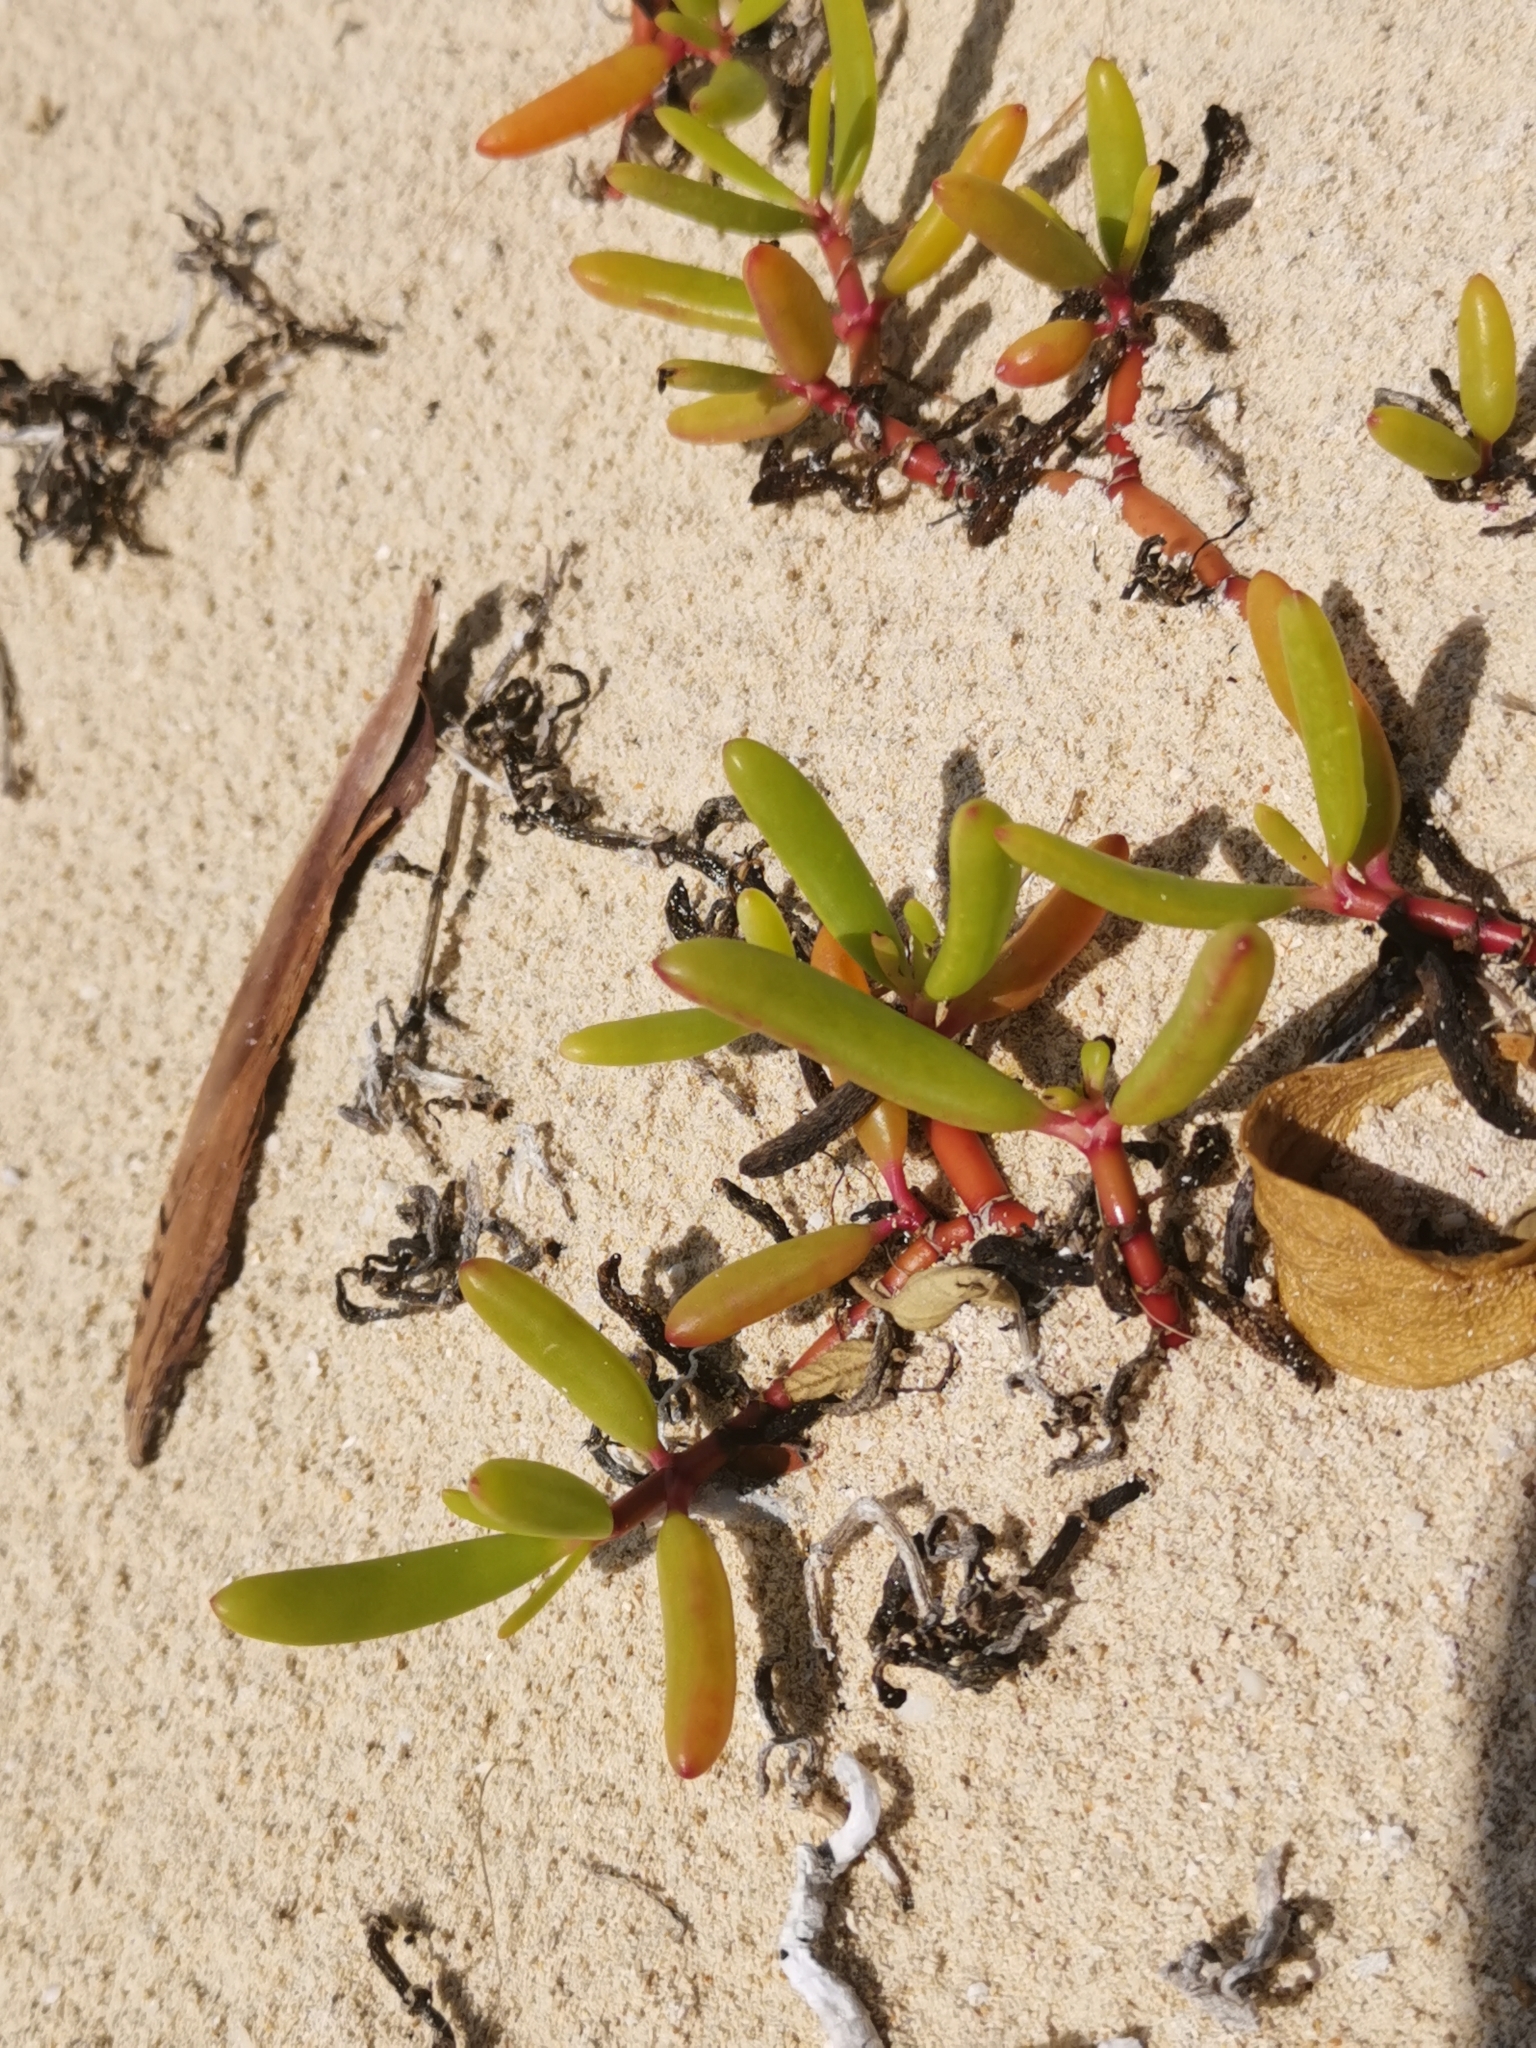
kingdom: Plantae
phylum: Tracheophyta
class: Magnoliopsida
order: Caryophyllales
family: Aizoaceae
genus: Sesuvium
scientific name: Sesuvium portulacastrum
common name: Sea-purslane
